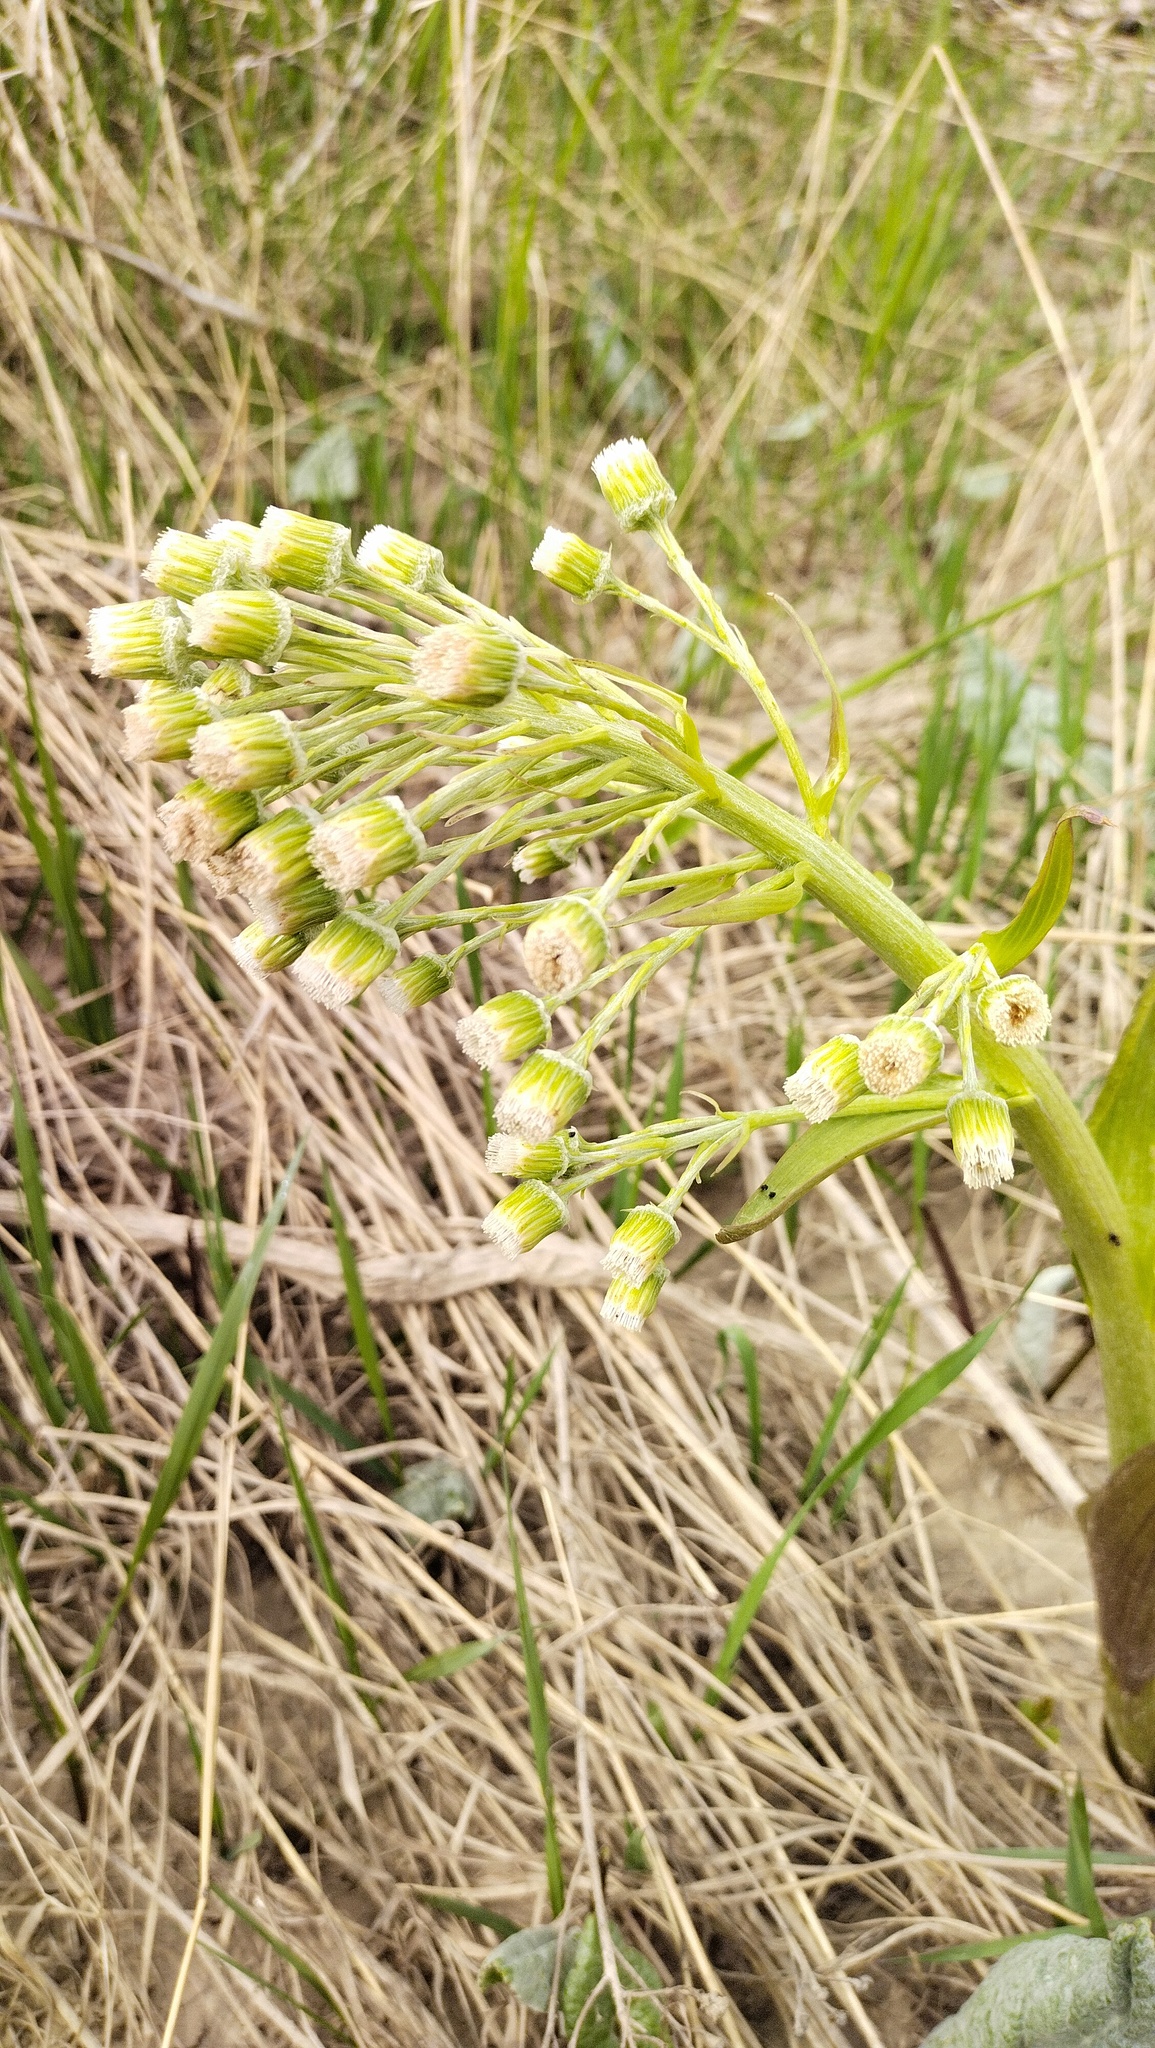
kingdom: Plantae
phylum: Tracheophyta
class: Magnoliopsida
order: Asterales
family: Asteraceae
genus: Petasites
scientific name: Petasites spurius
